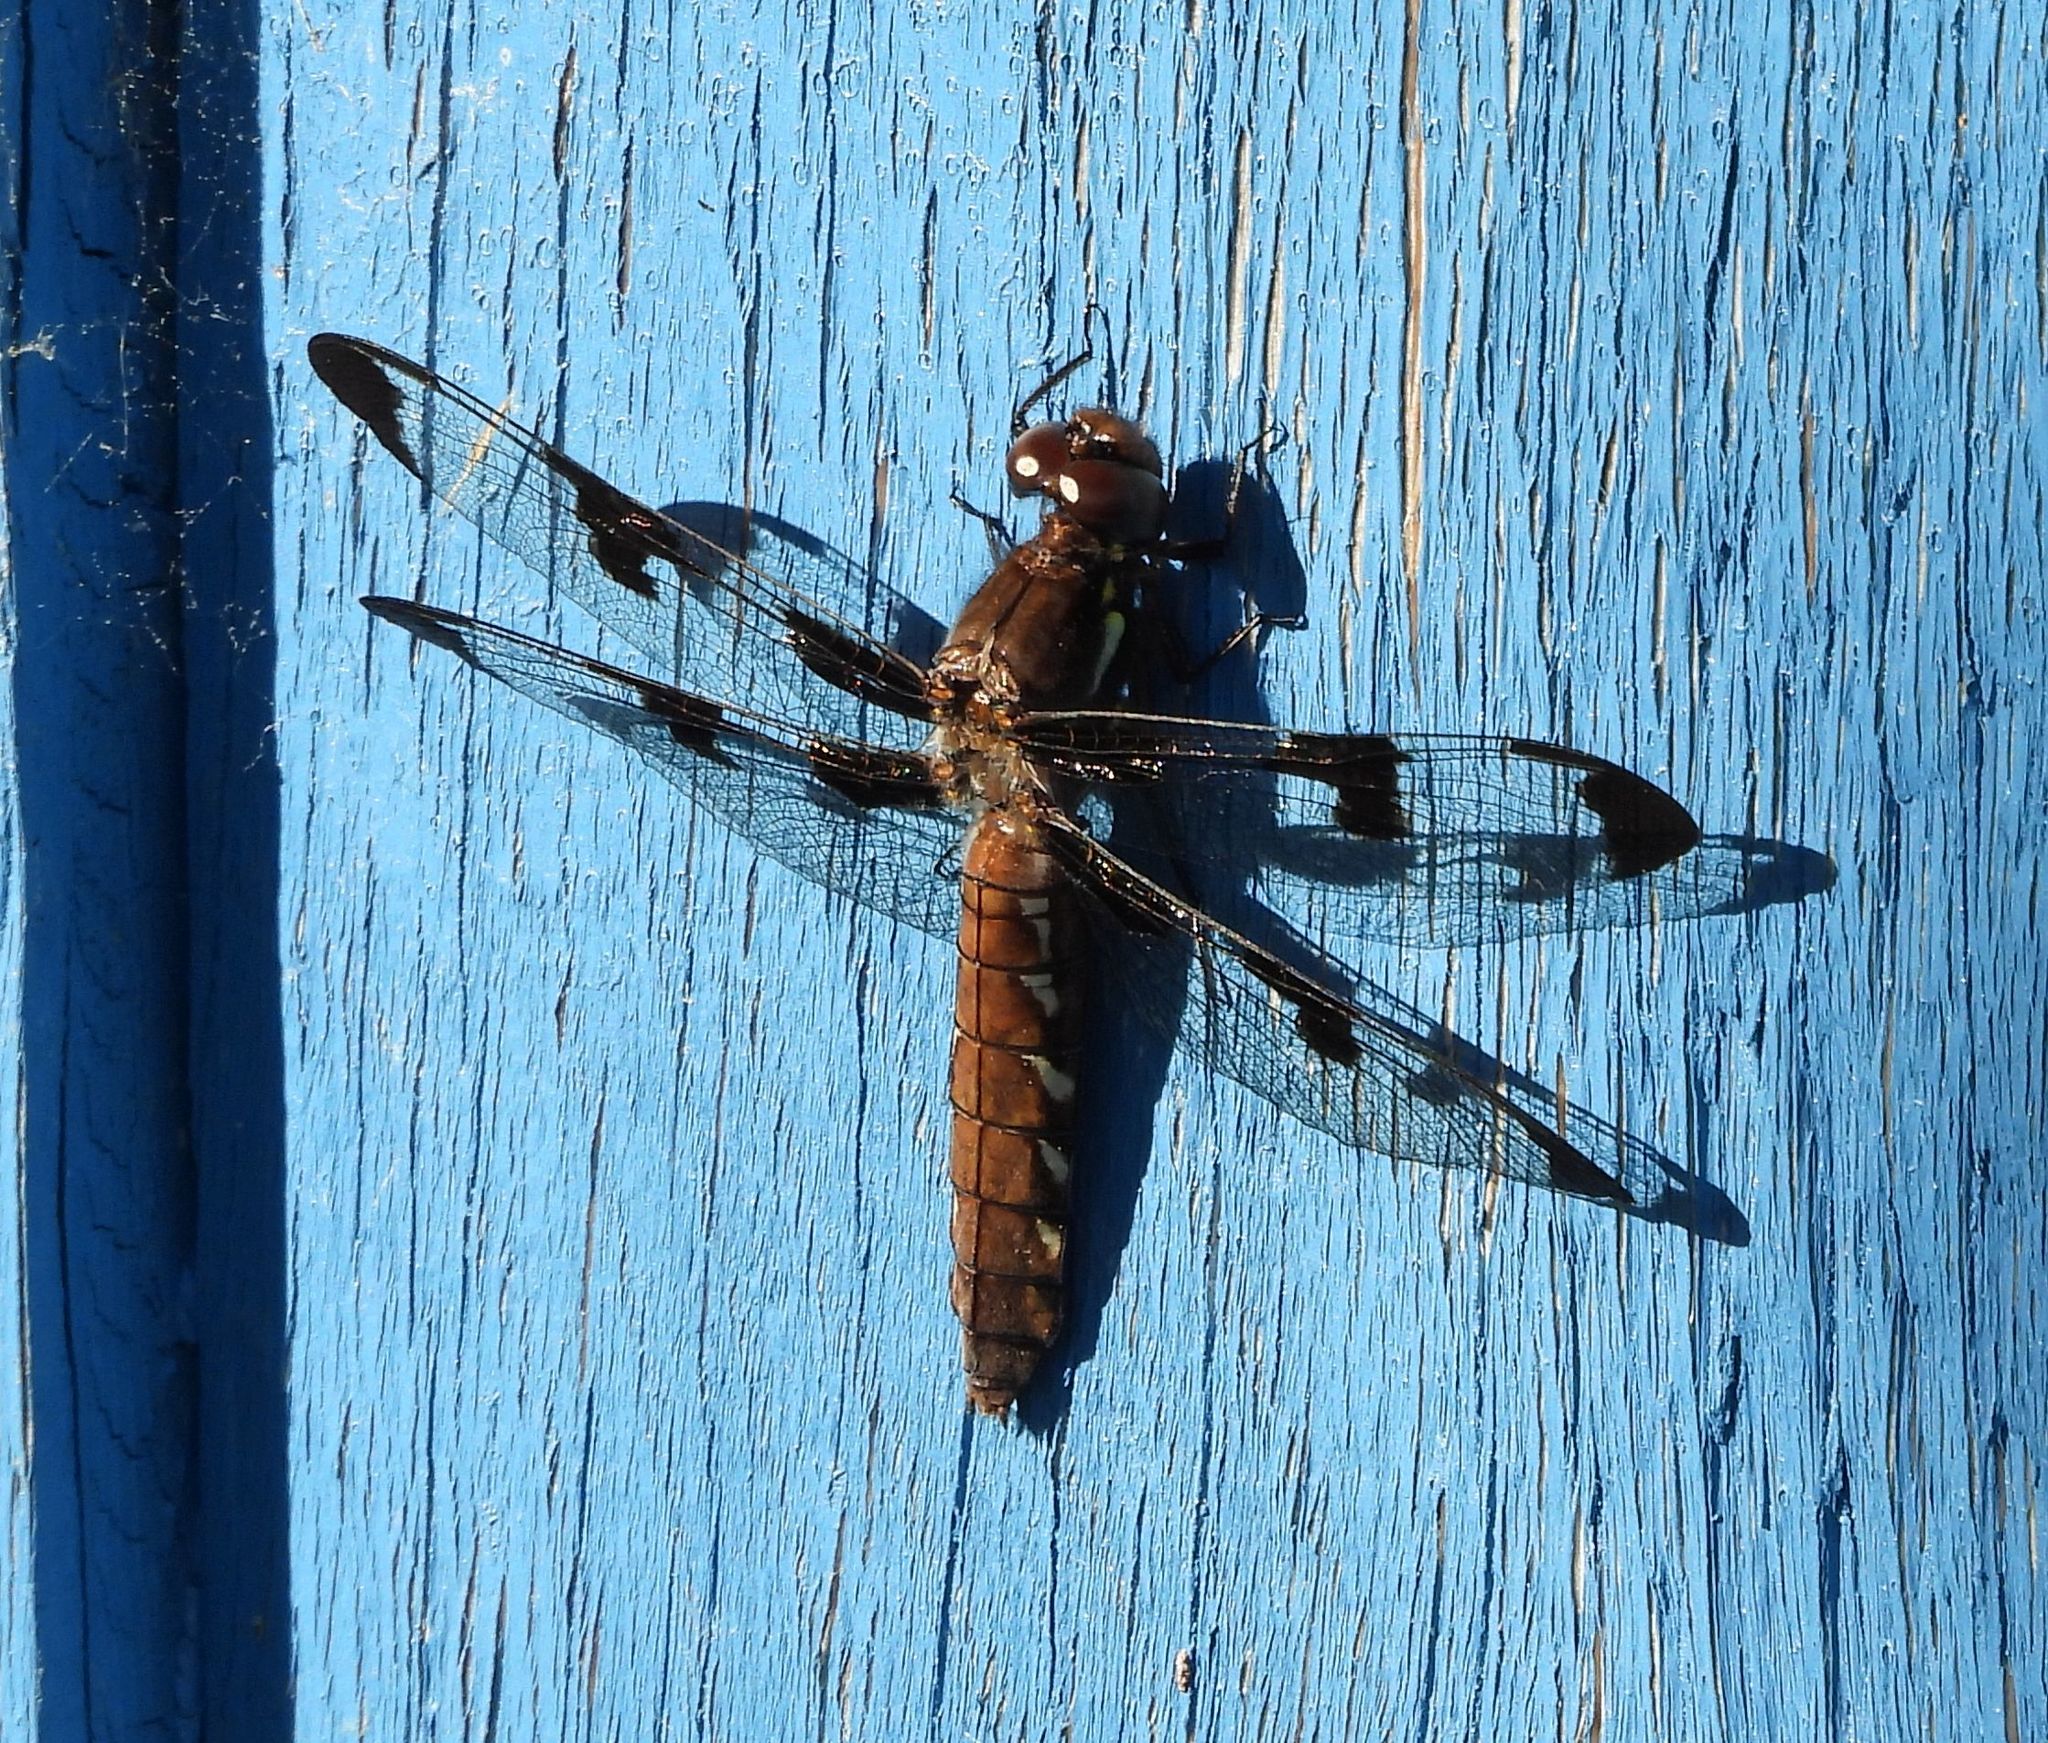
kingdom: Animalia
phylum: Arthropoda
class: Insecta
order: Odonata
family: Libellulidae
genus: Plathemis
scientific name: Plathemis lydia
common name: Common whitetail
